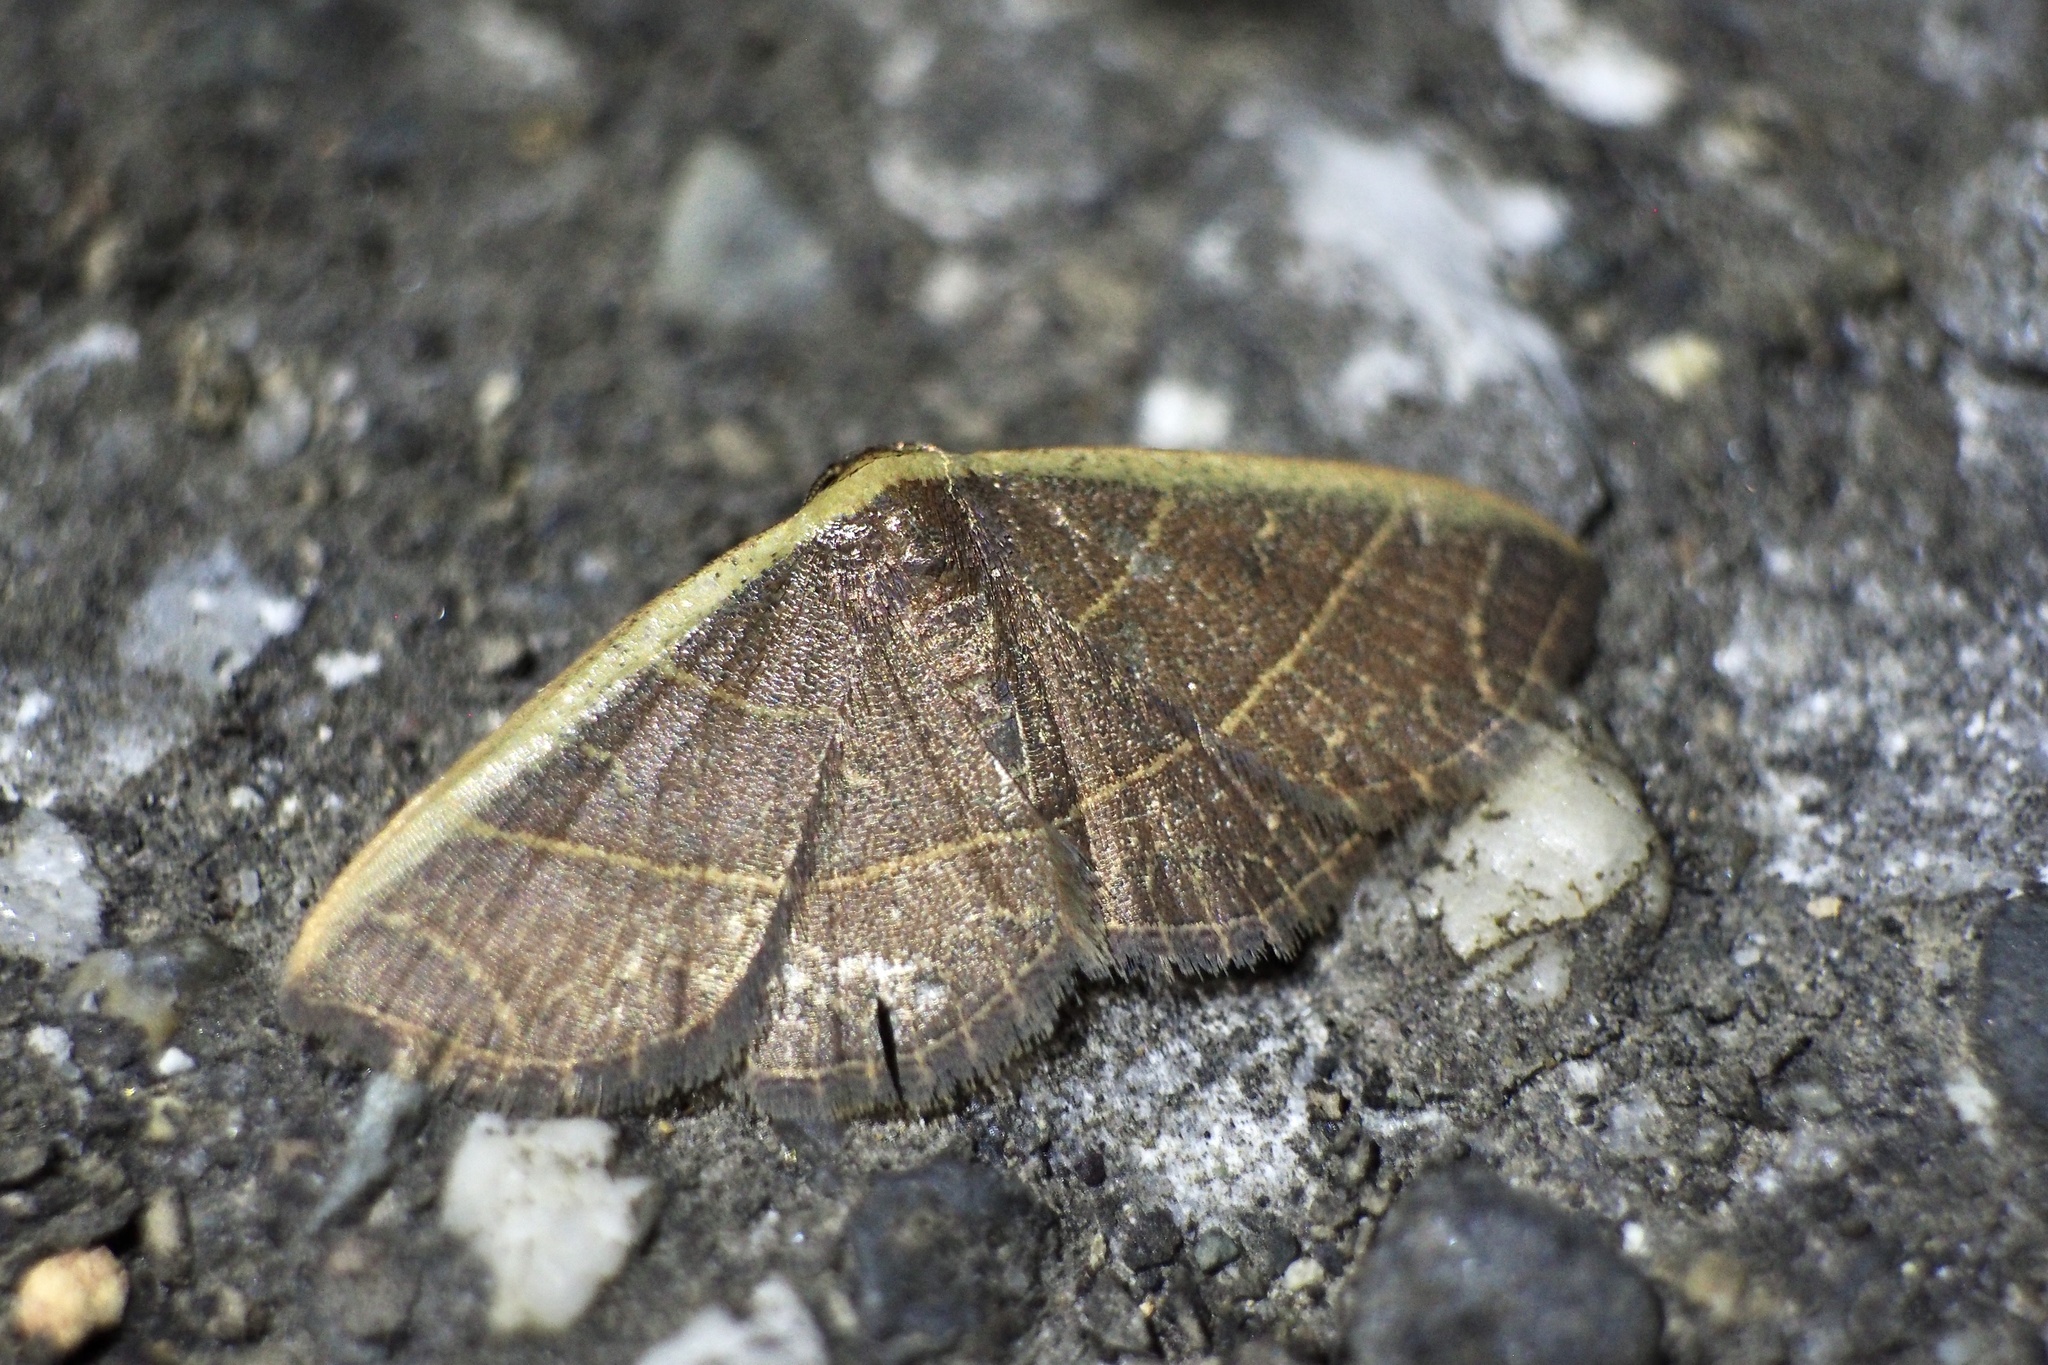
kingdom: Animalia
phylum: Arthropoda
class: Insecta
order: Lepidoptera
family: Noctuidae
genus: Oruza
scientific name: Oruza mira
